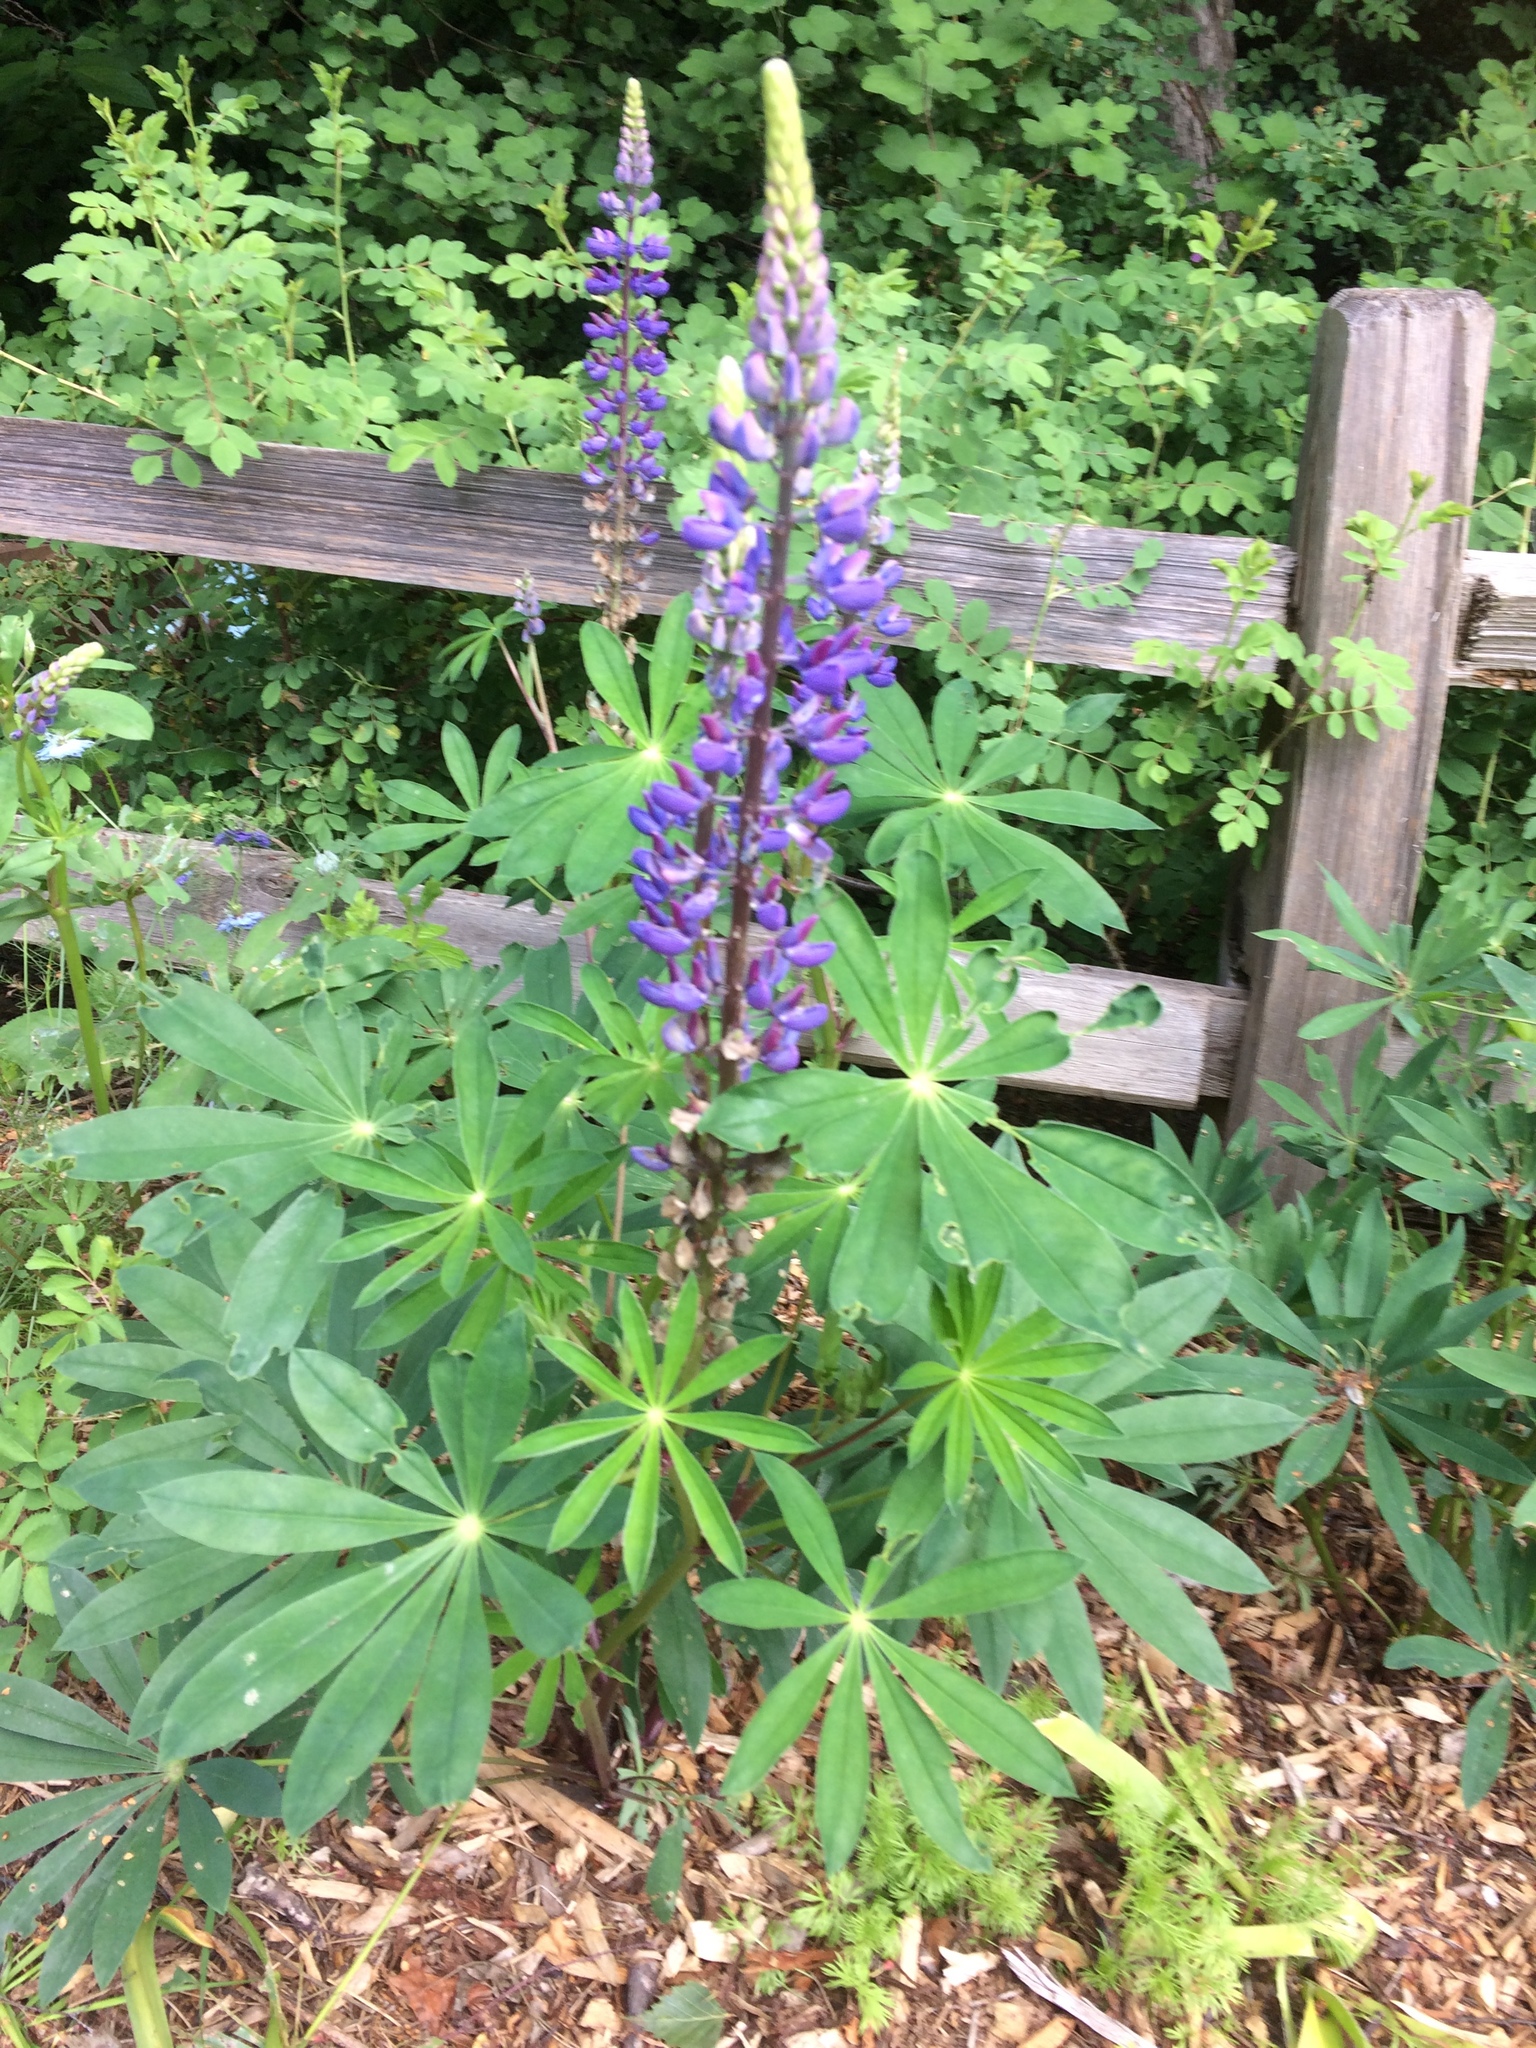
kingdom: Plantae
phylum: Tracheophyta
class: Magnoliopsida
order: Fabales
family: Fabaceae
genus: Lupinus
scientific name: Lupinus polyphyllus
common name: Garden lupin
